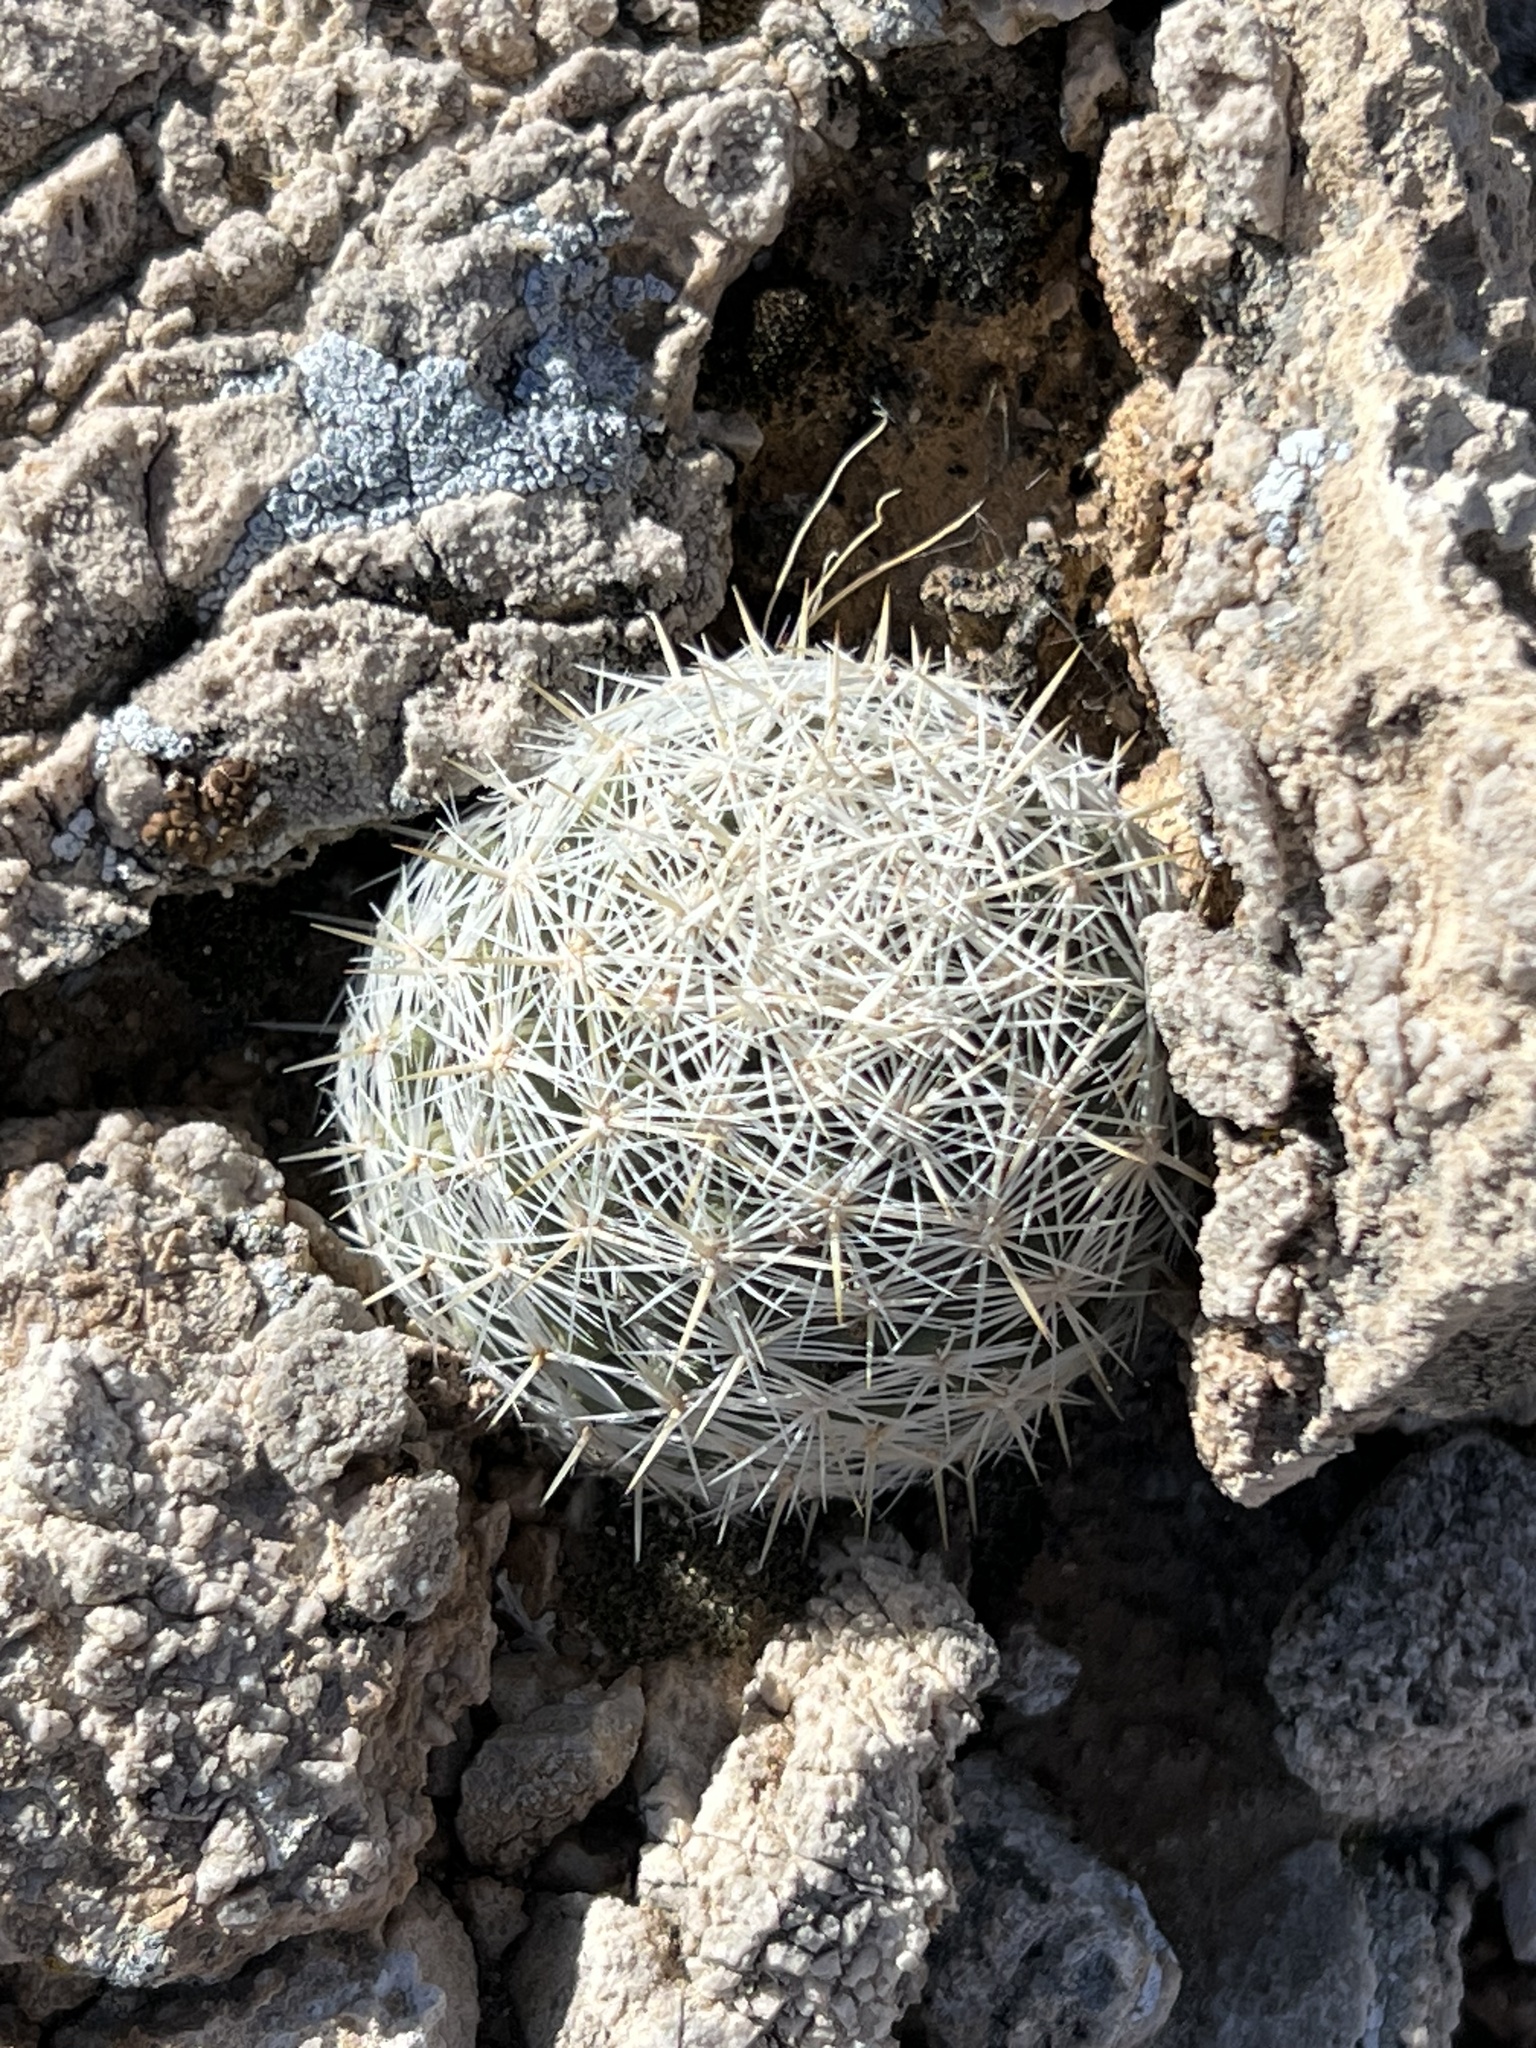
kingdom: Plantae
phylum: Tracheophyta
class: Magnoliopsida
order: Caryophyllales
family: Cactaceae
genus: Pelecyphora
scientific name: Pelecyphora dasyacantha
